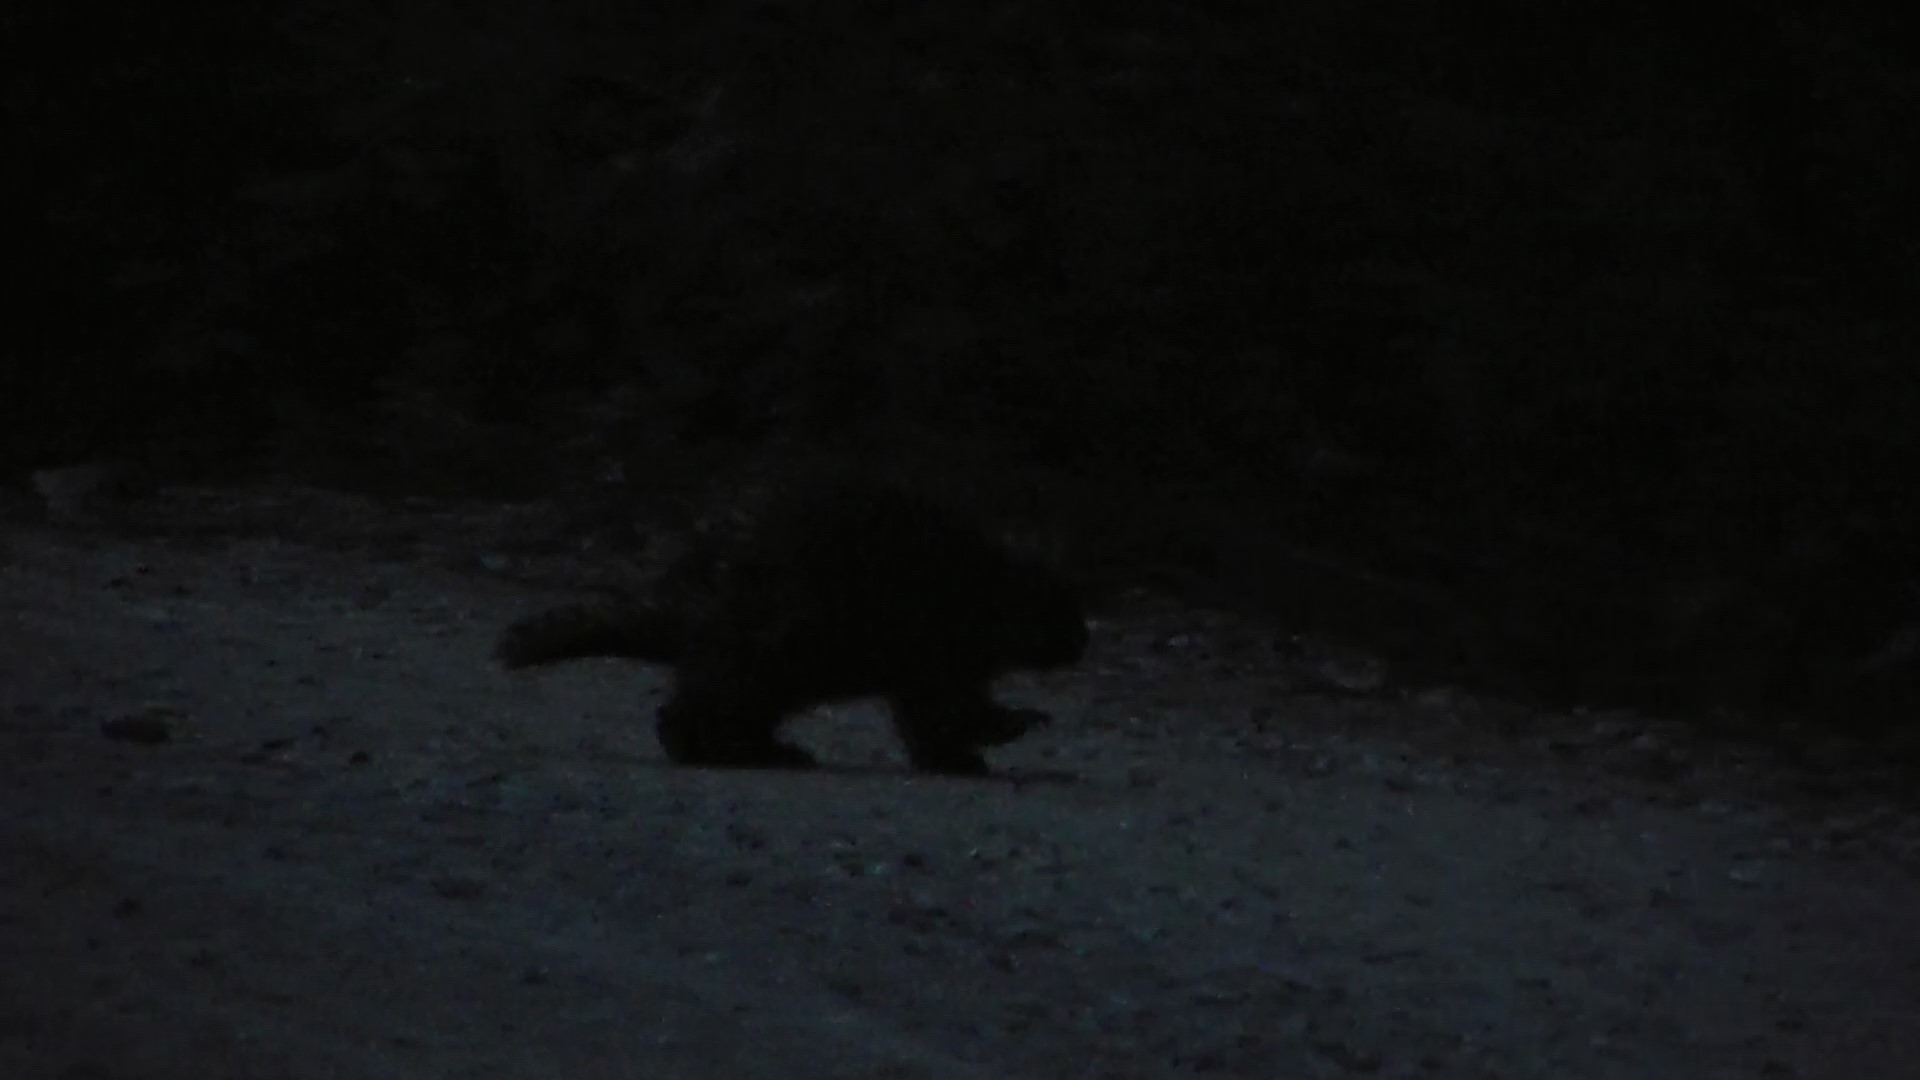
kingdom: Animalia
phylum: Chordata
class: Mammalia
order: Rodentia
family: Erethizontidae
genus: Erethizon
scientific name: Erethizon dorsatus
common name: North american porcupine
